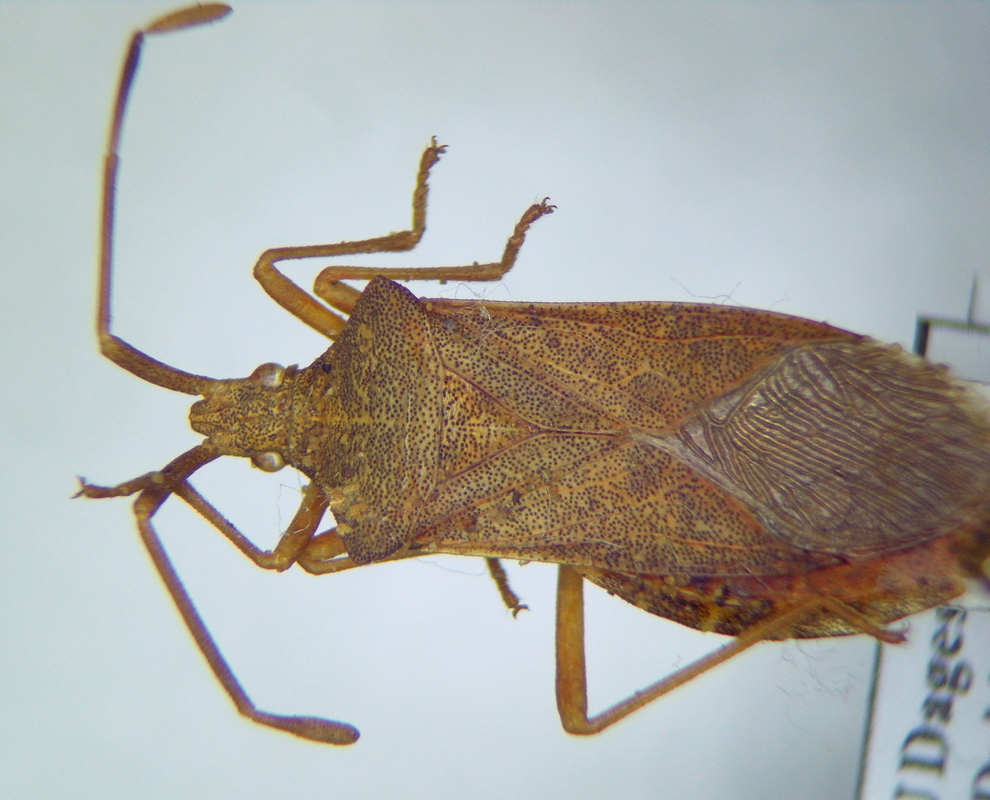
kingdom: Animalia
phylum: Arthropoda
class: Insecta
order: Hemiptera
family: Coreidae
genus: Gonocerus
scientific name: Gonocerus acuteangulatus
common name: Box bug
